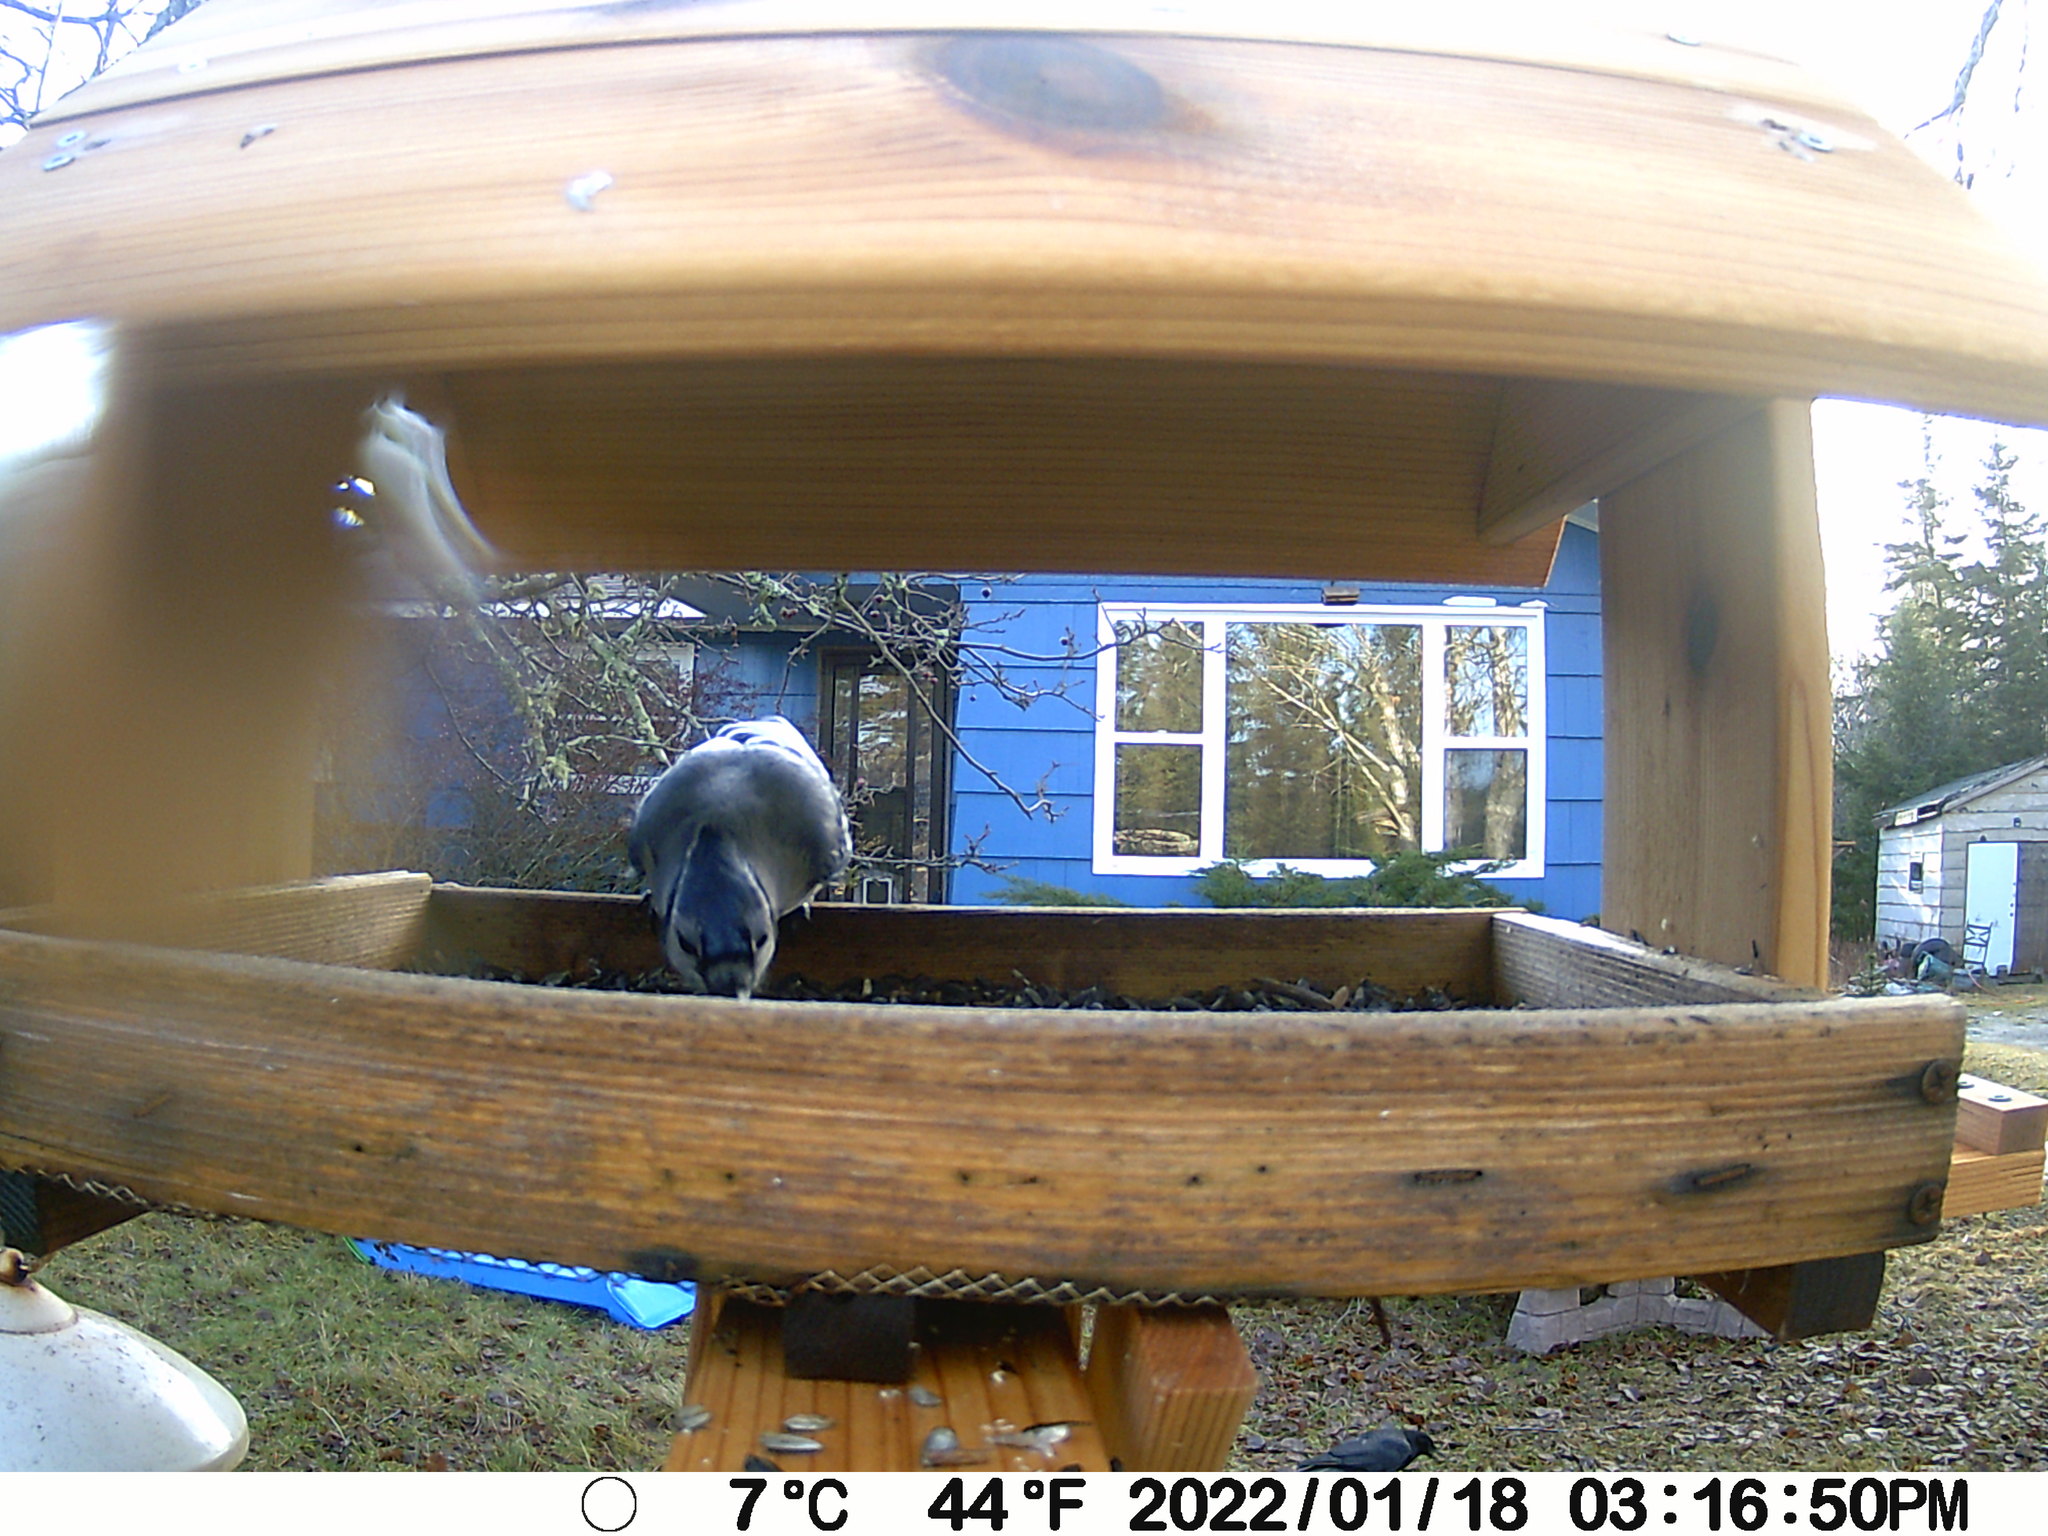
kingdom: Animalia
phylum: Chordata
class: Aves
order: Passeriformes
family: Corvidae
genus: Cyanocitta
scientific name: Cyanocitta cristata
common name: Blue jay
